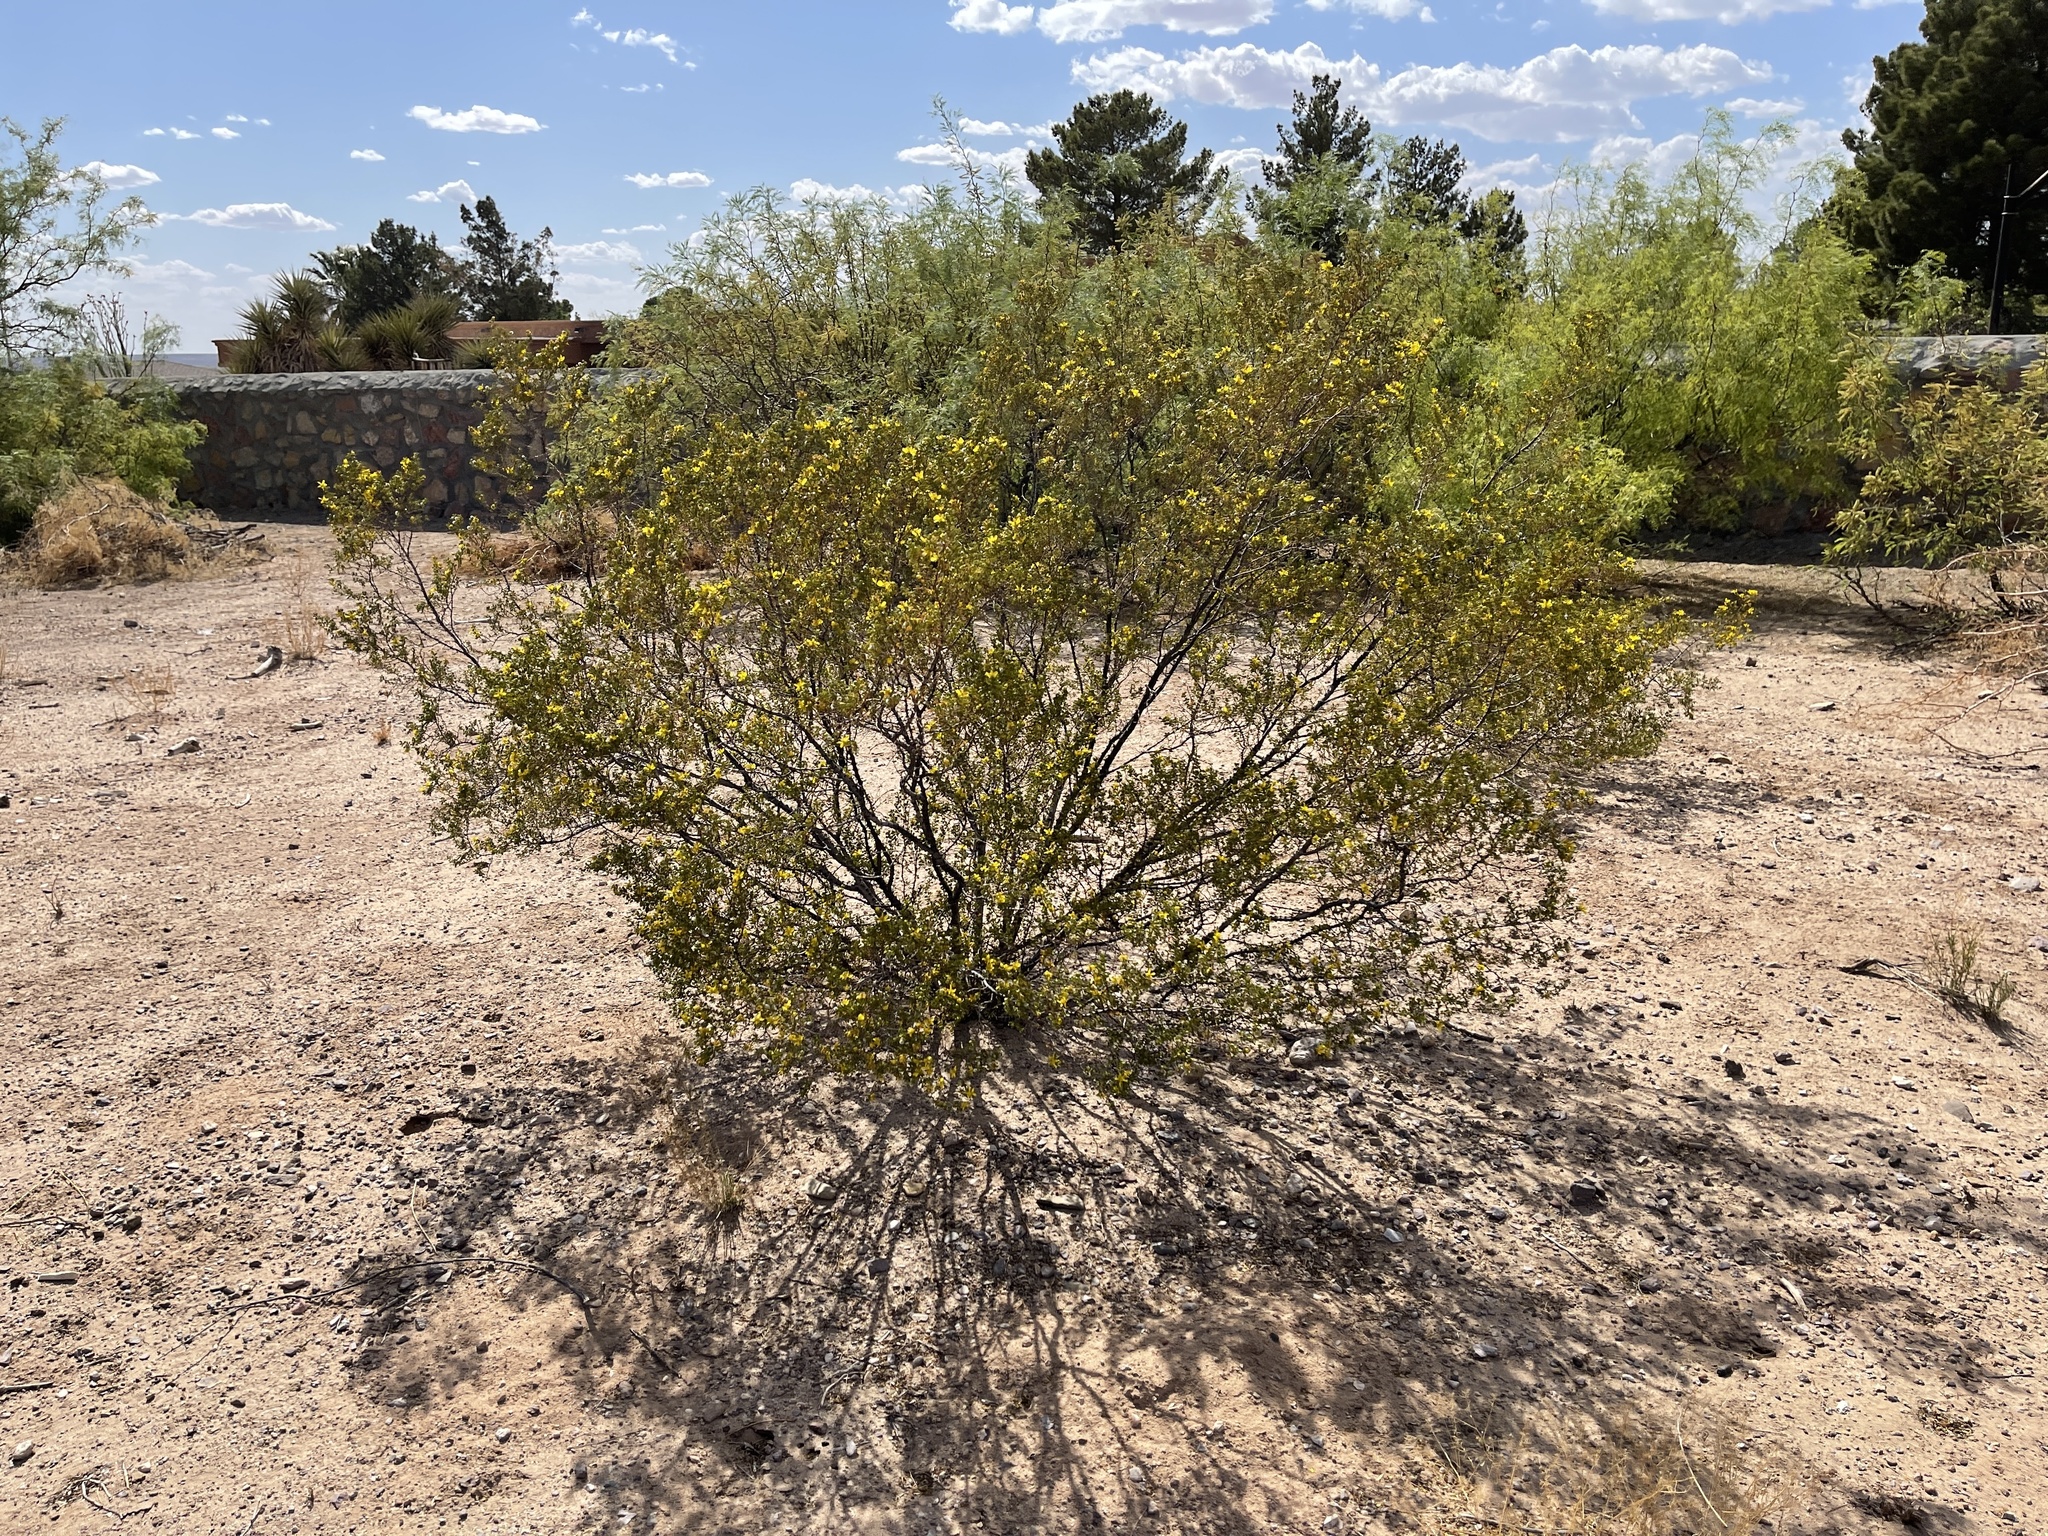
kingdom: Plantae
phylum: Tracheophyta
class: Magnoliopsida
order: Zygophyllales
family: Zygophyllaceae
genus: Larrea
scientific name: Larrea tridentata
